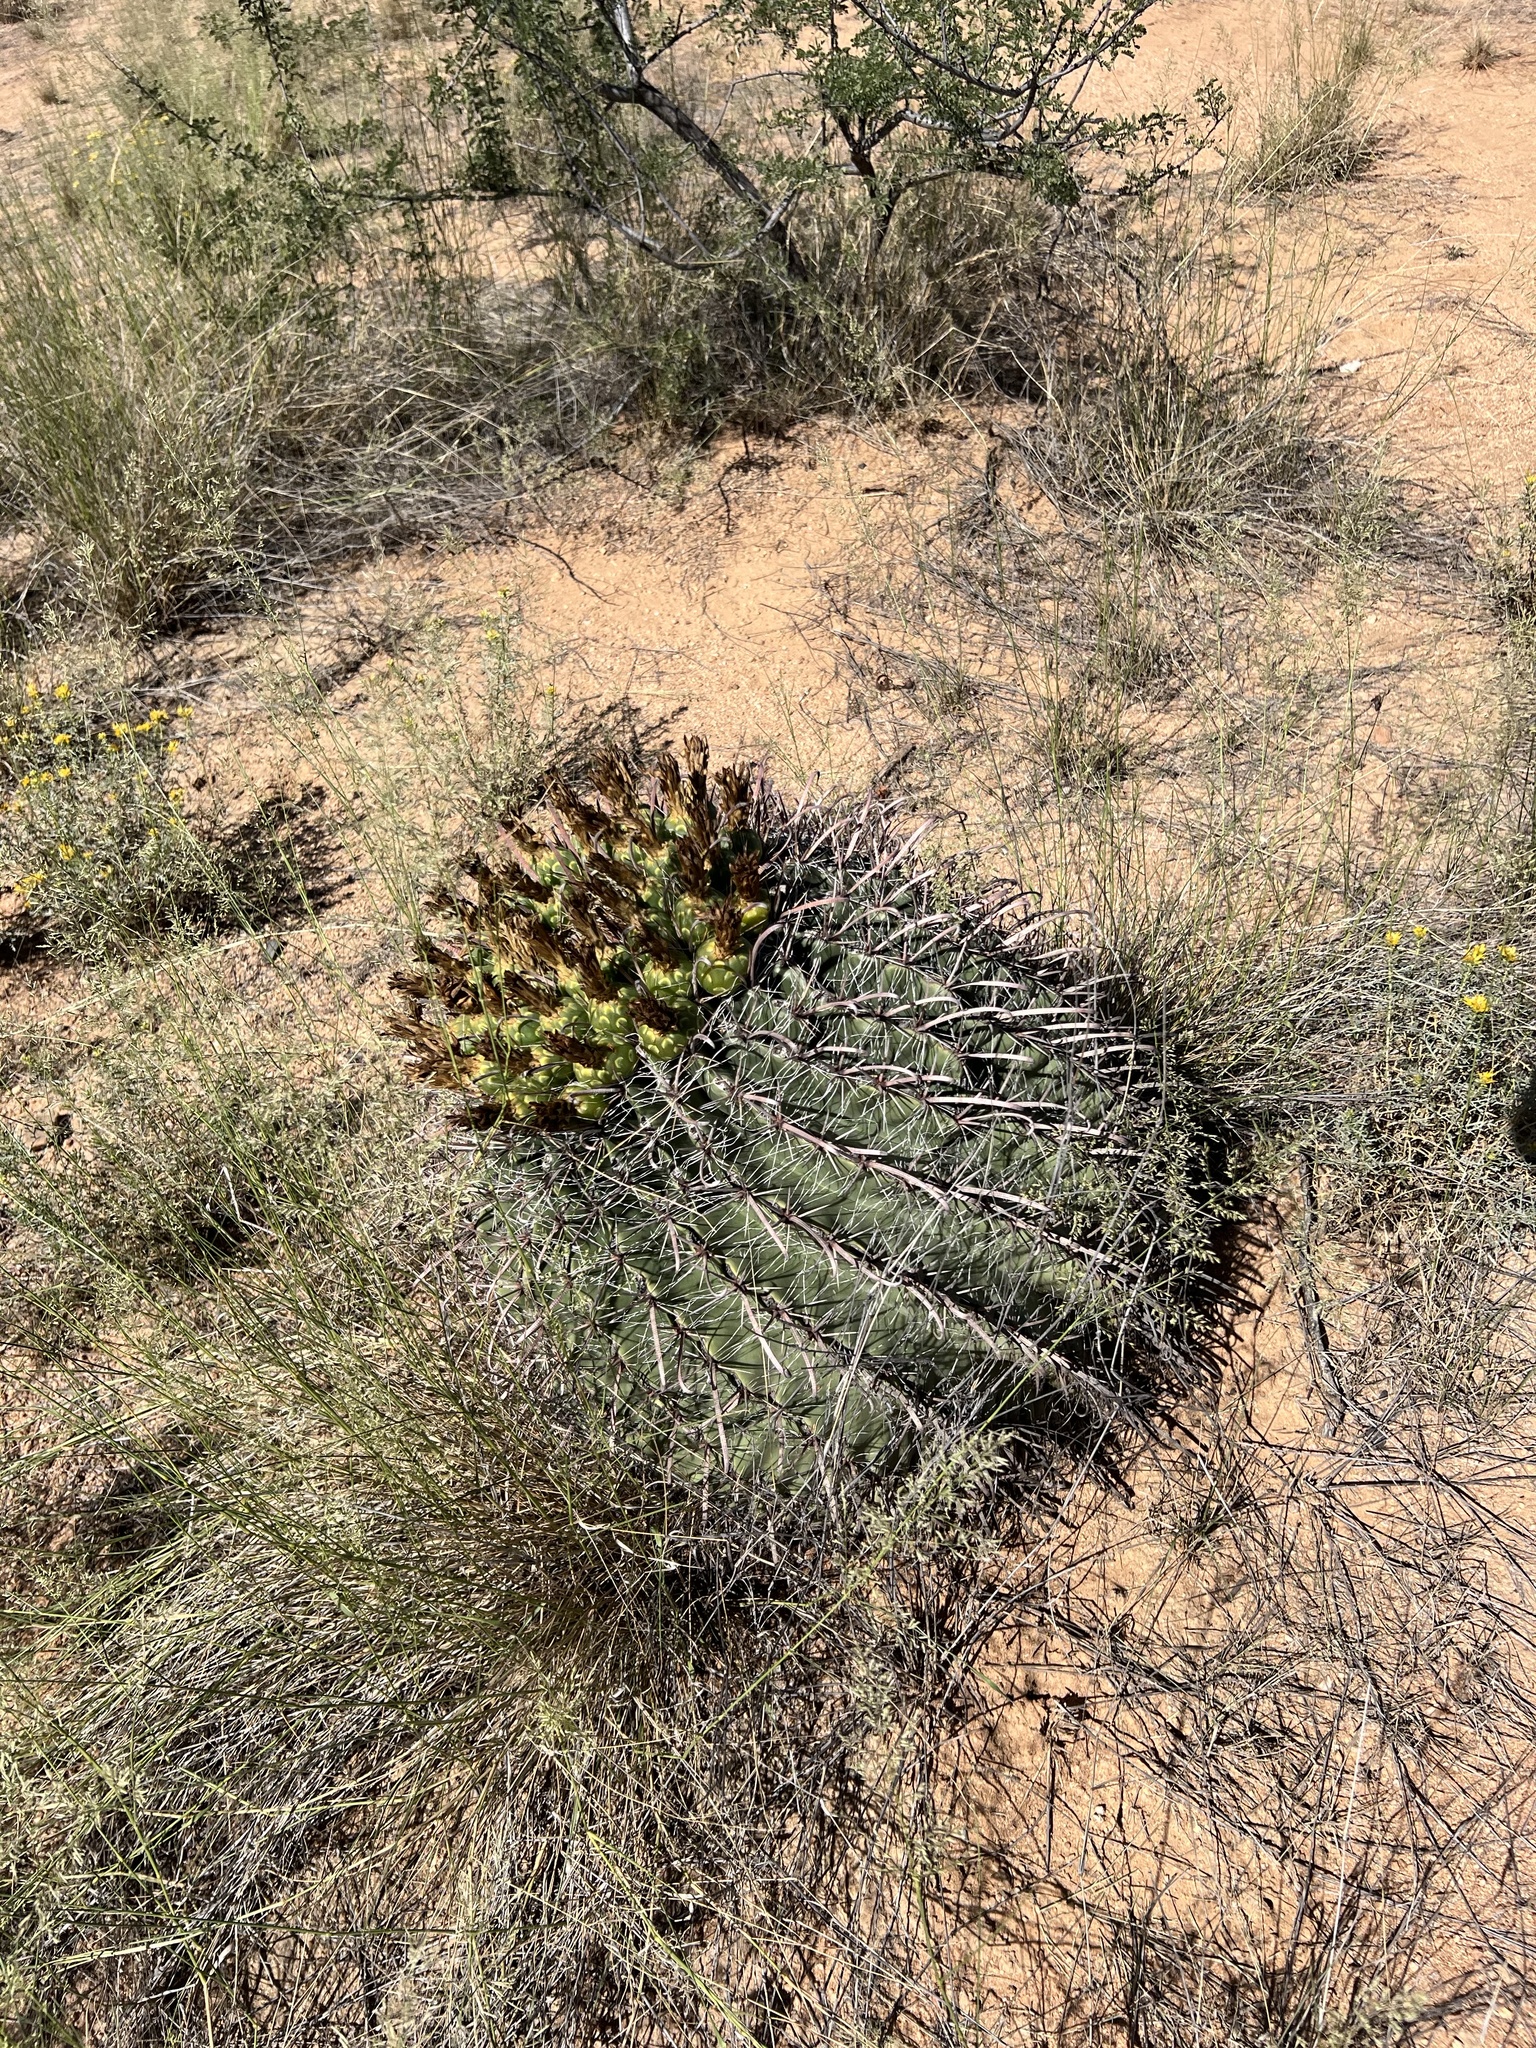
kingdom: Plantae
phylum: Tracheophyta
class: Magnoliopsida
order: Caryophyllales
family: Cactaceae
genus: Ferocactus
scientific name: Ferocactus wislizeni
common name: Candy barrel cactus
